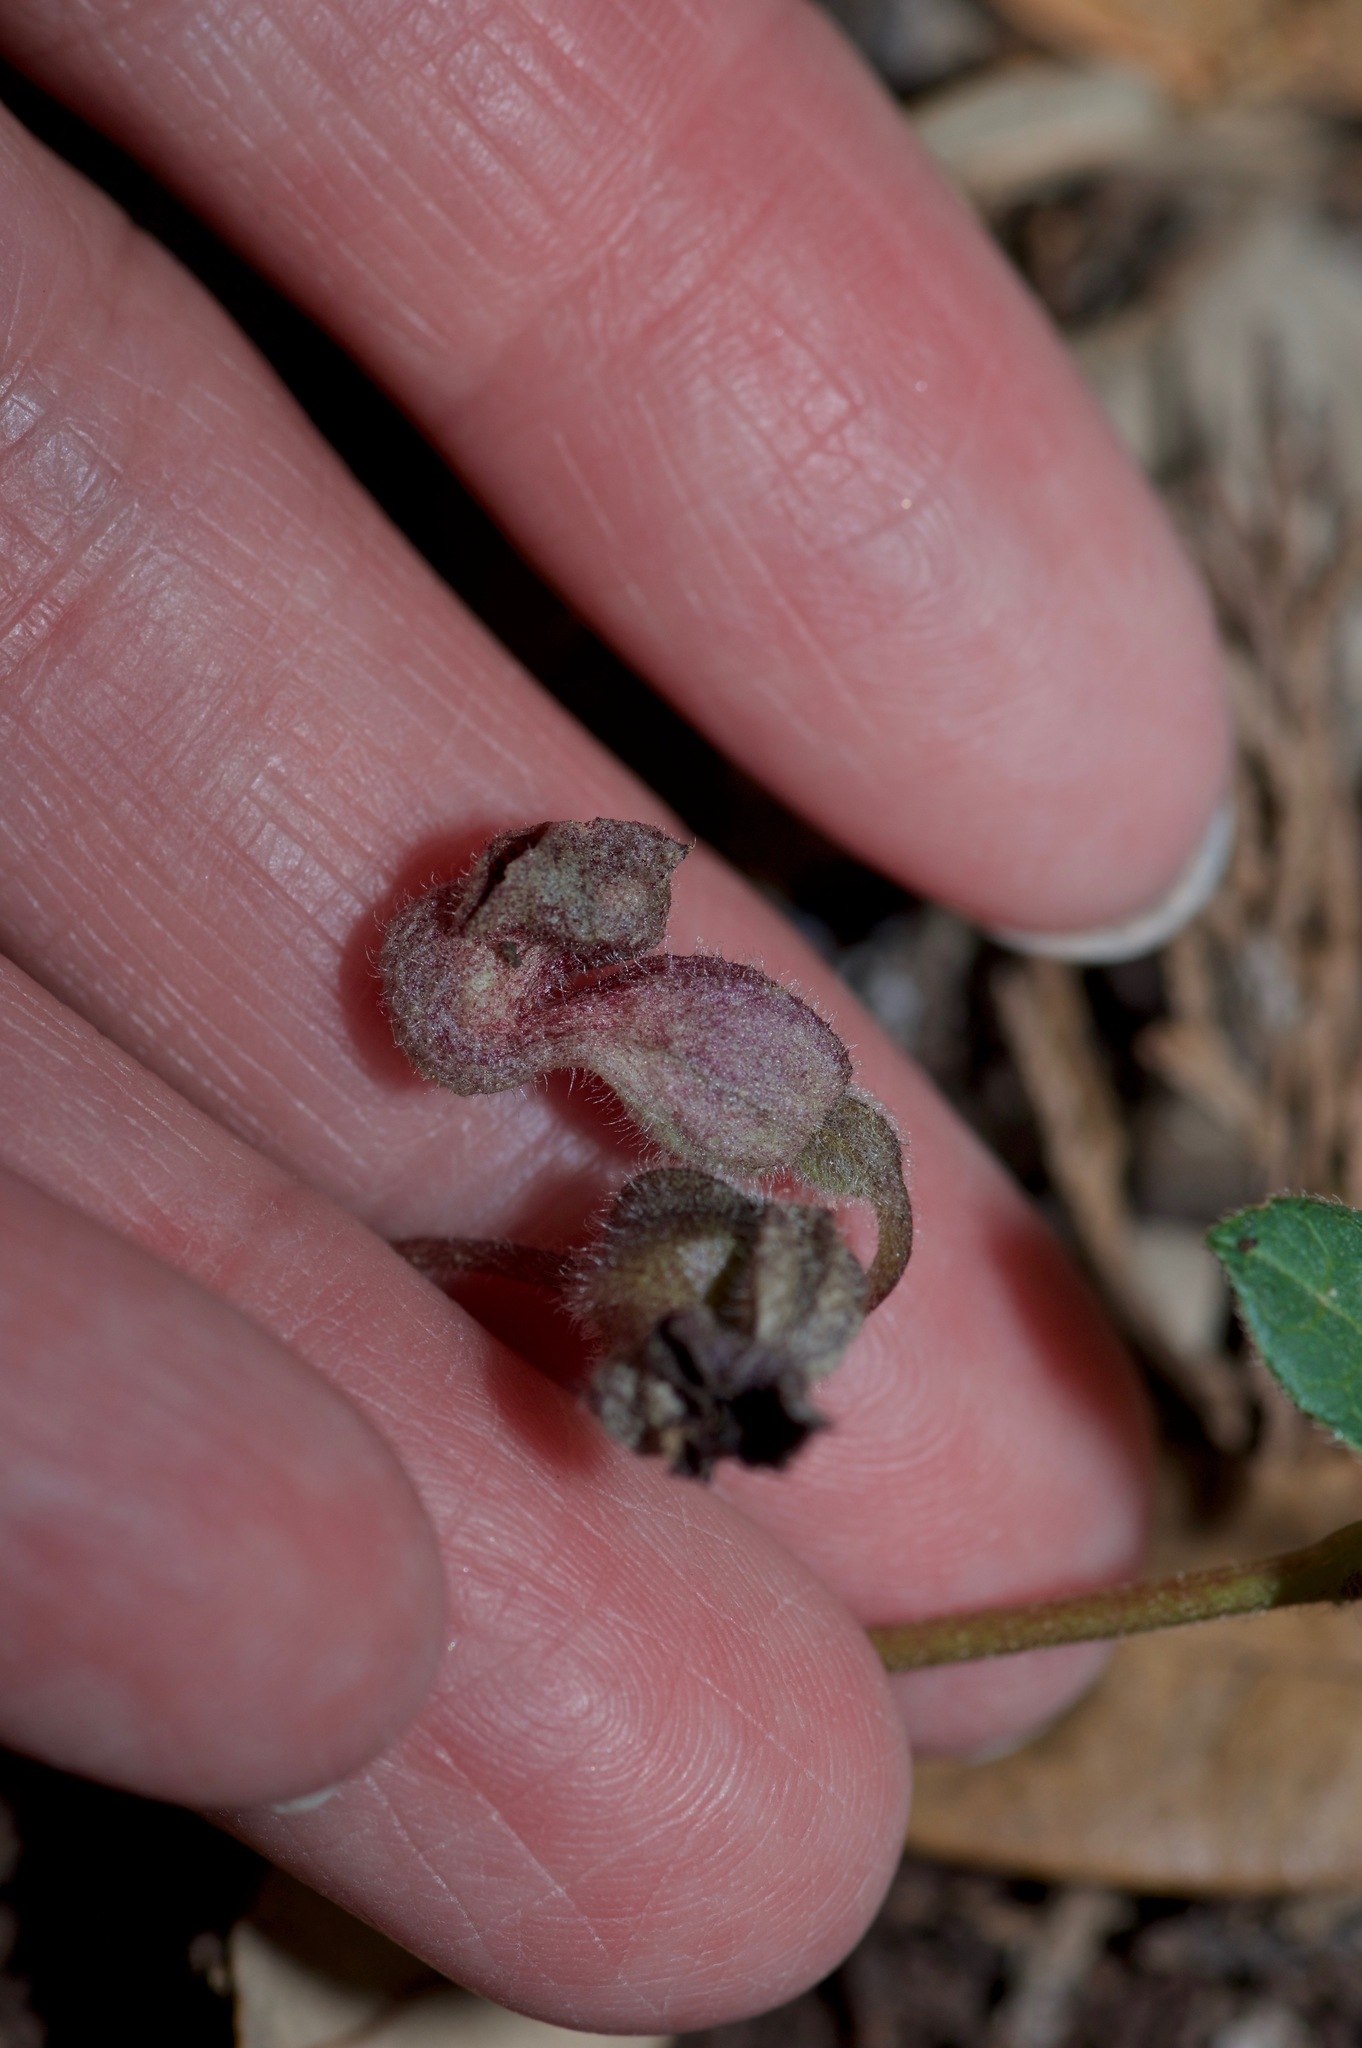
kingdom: Plantae
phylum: Tracheophyta
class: Magnoliopsida
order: Piperales
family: Aristolochiaceae
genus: Endodeca
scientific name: Endodeca serpentaria
